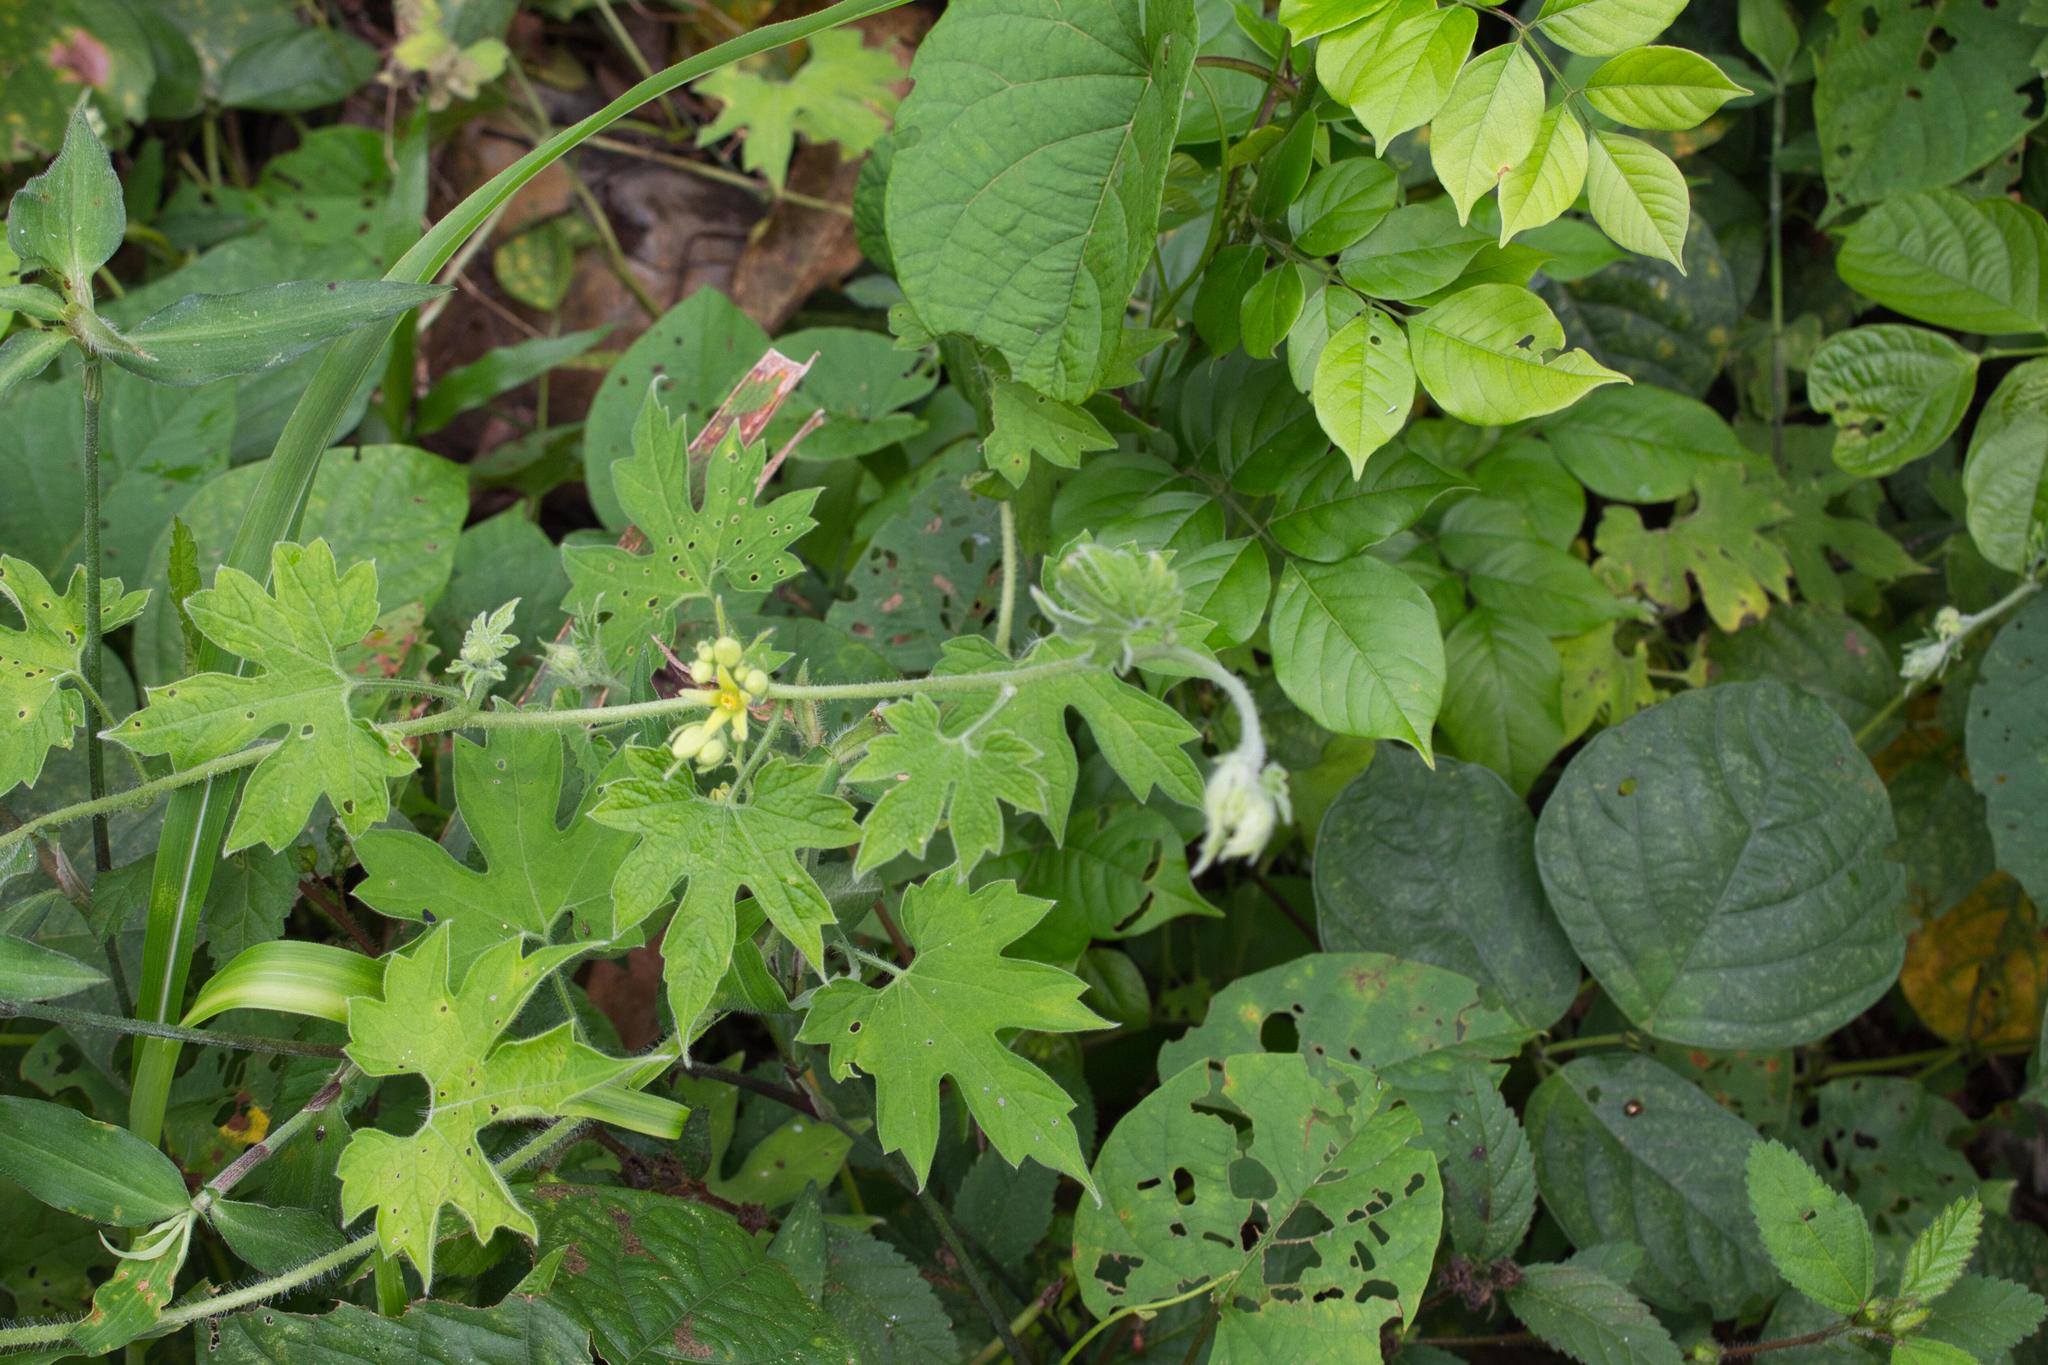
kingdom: Plantae
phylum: Tracheophyta
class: Magnoliopsida
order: Cornales
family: Loasaceae
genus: Gronovia
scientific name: Gronovia scandens
